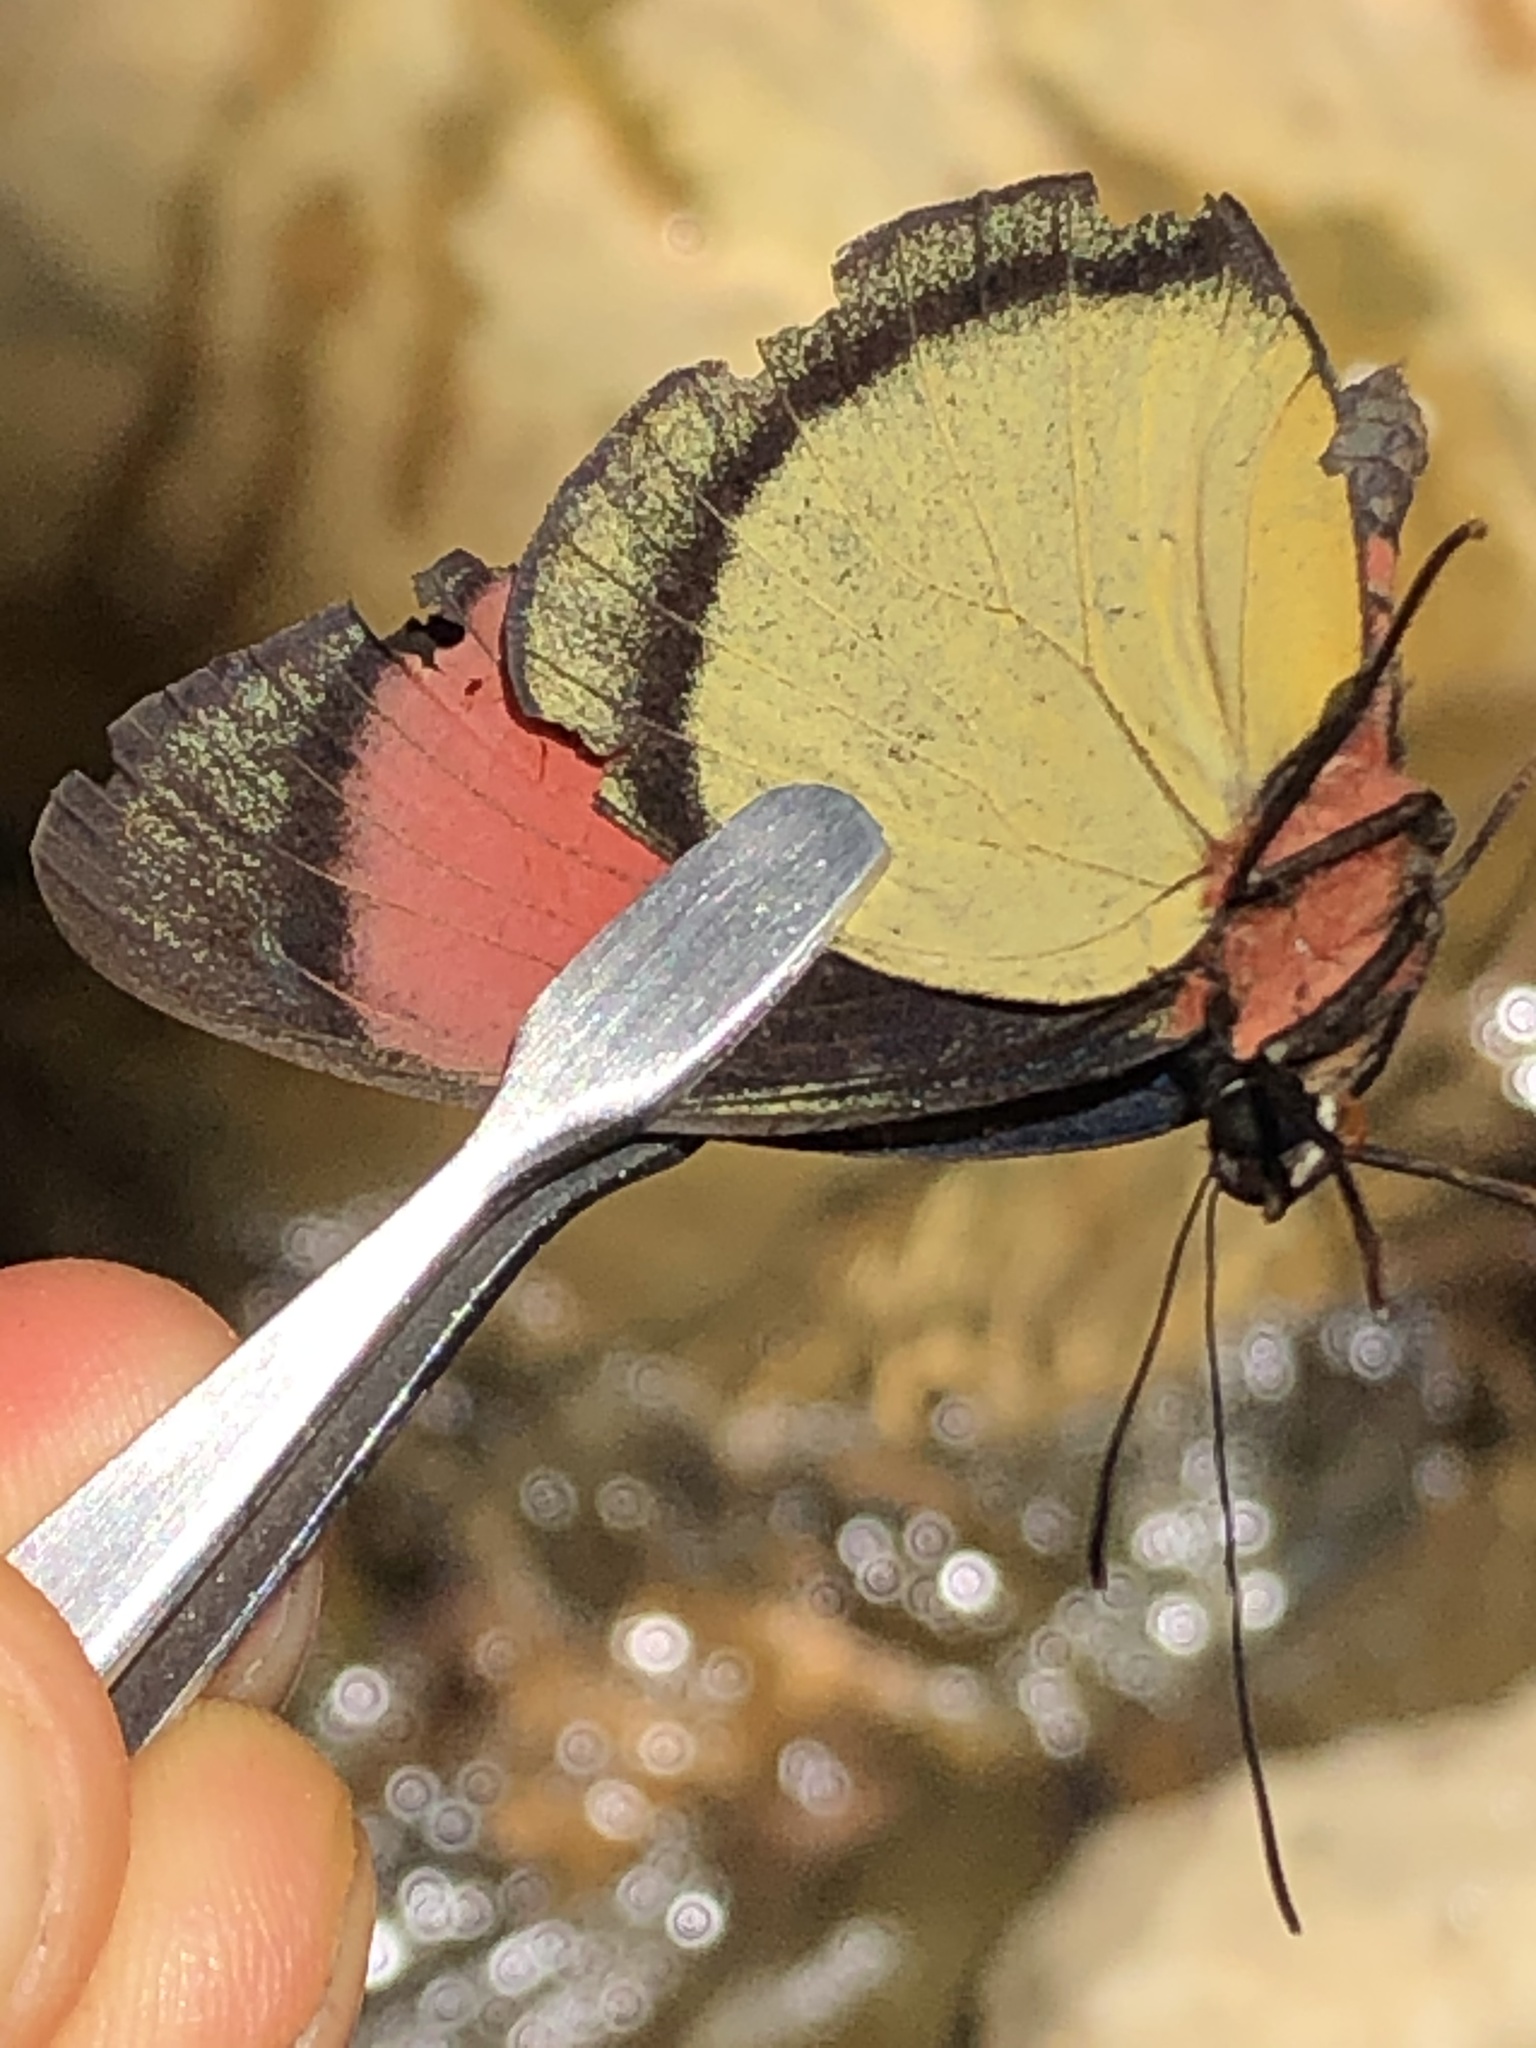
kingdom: Animalia
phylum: Arthropoda
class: Insecta
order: Lepidoptera
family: Nymphalidae
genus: Batesia
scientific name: Batesia hypochlora
